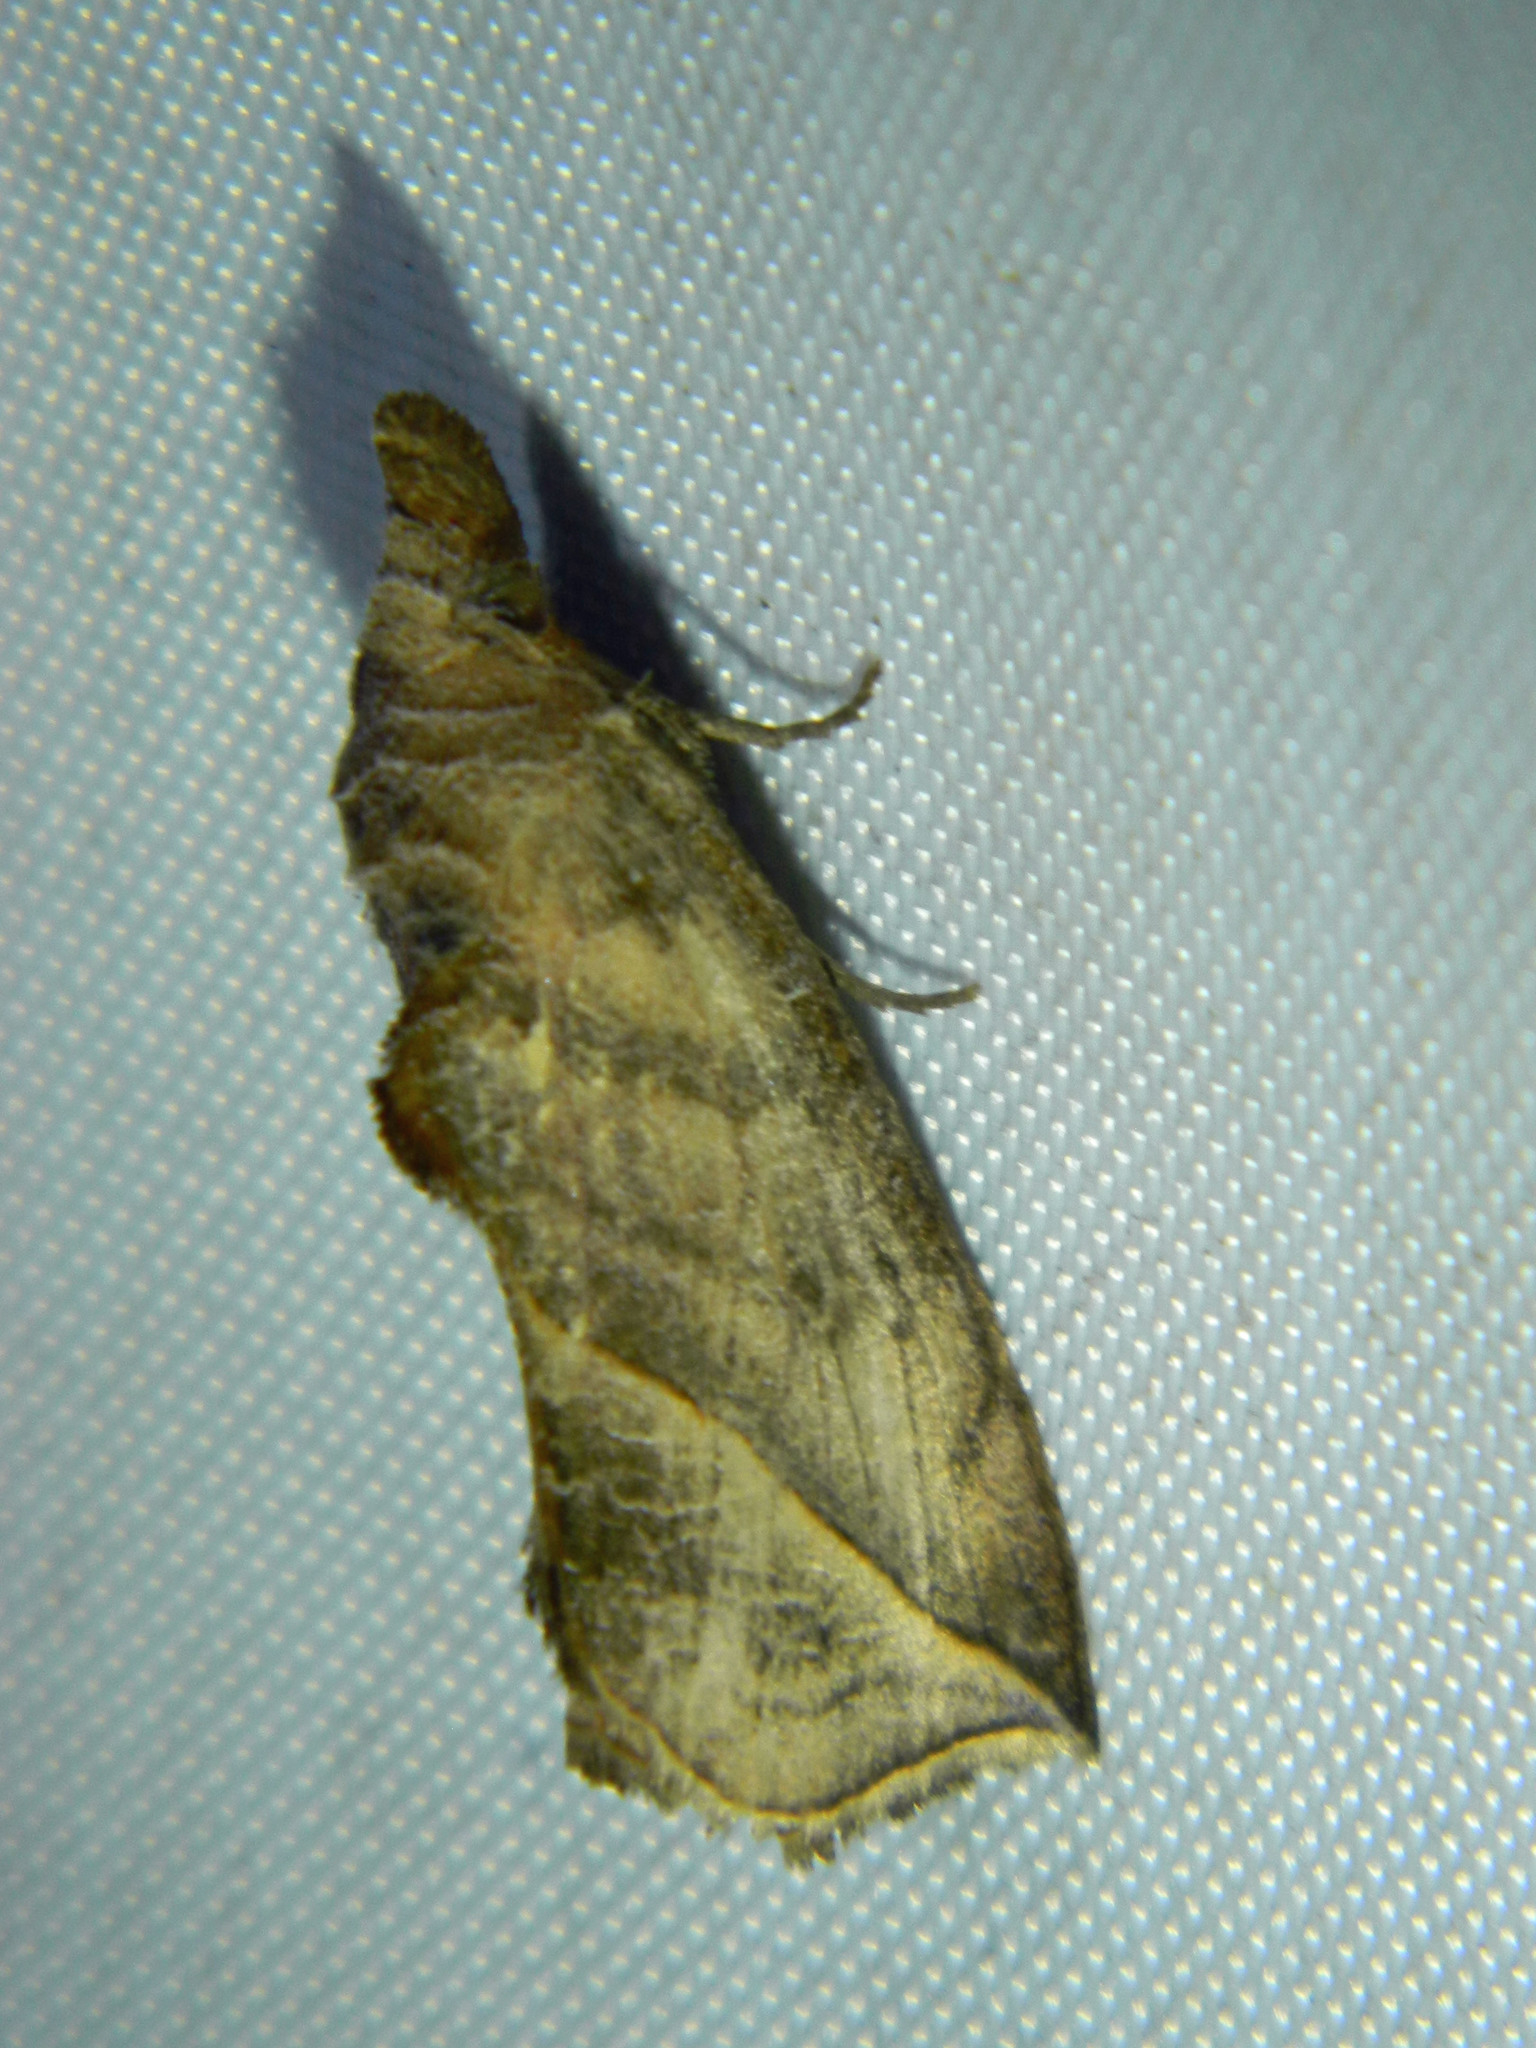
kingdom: Animalia
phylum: Arthropoda
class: Insecta
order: Lepidoptera
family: Erebidae
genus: Calyptra
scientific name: Calyptra canadensis
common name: Canadian owlet
